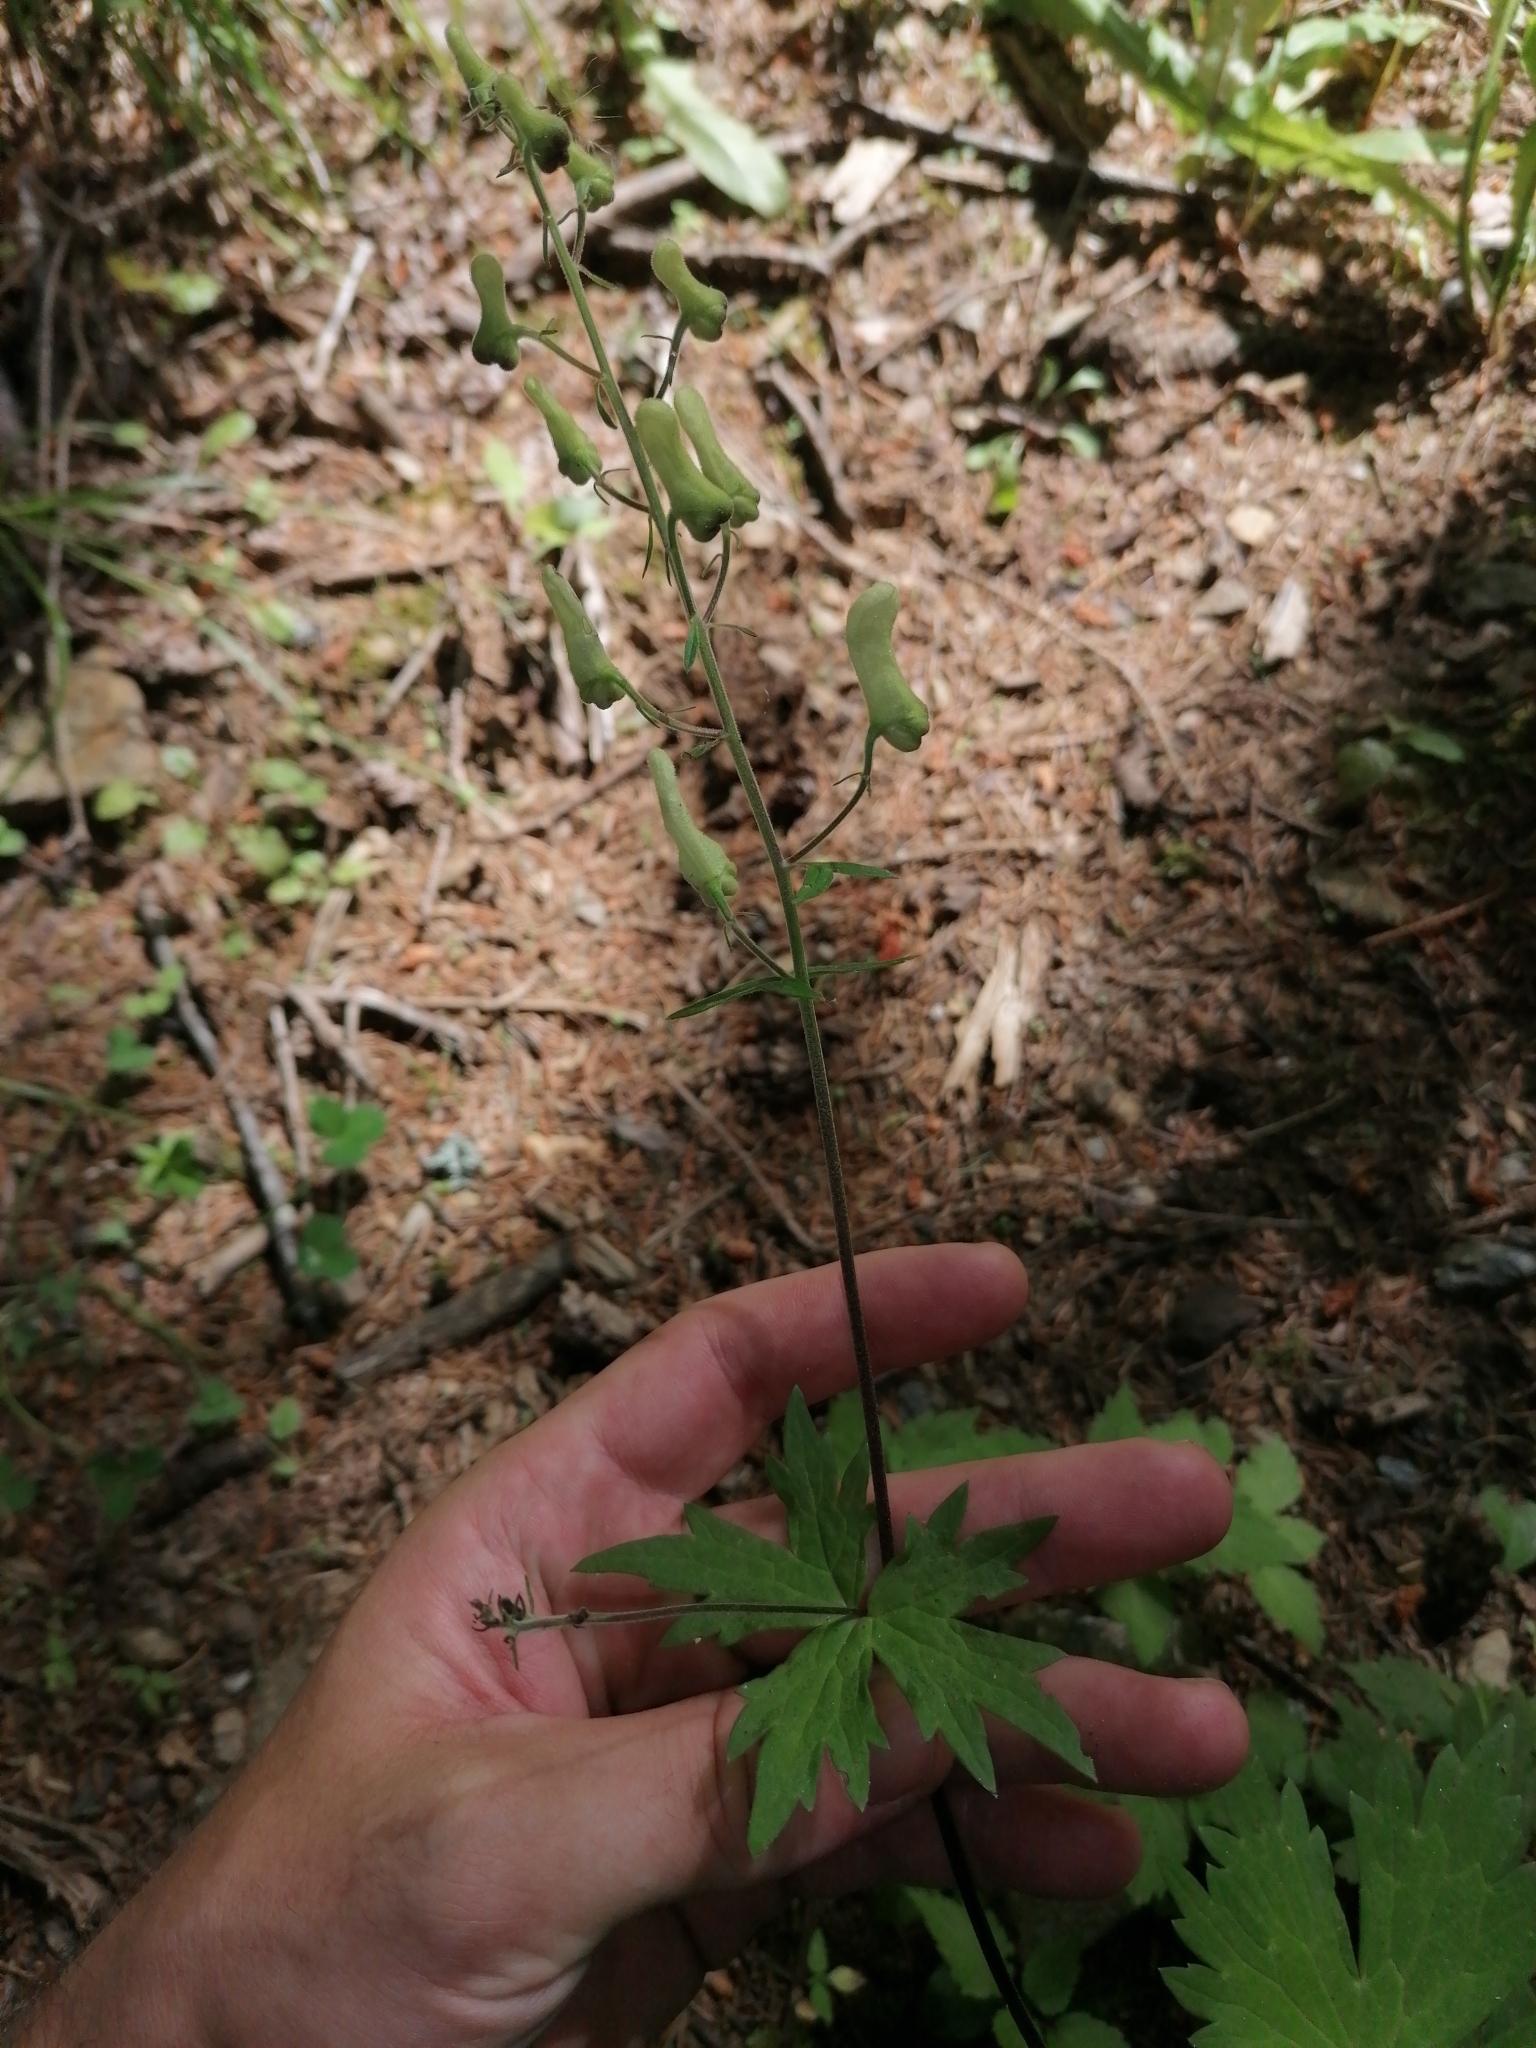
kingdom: Plantae
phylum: Tracheophyta
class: Magnoliopsida
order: Ranunculales
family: Ranunculaceae
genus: Aconitum
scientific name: Aconitum lycoctonum
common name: Wolf's-bane
